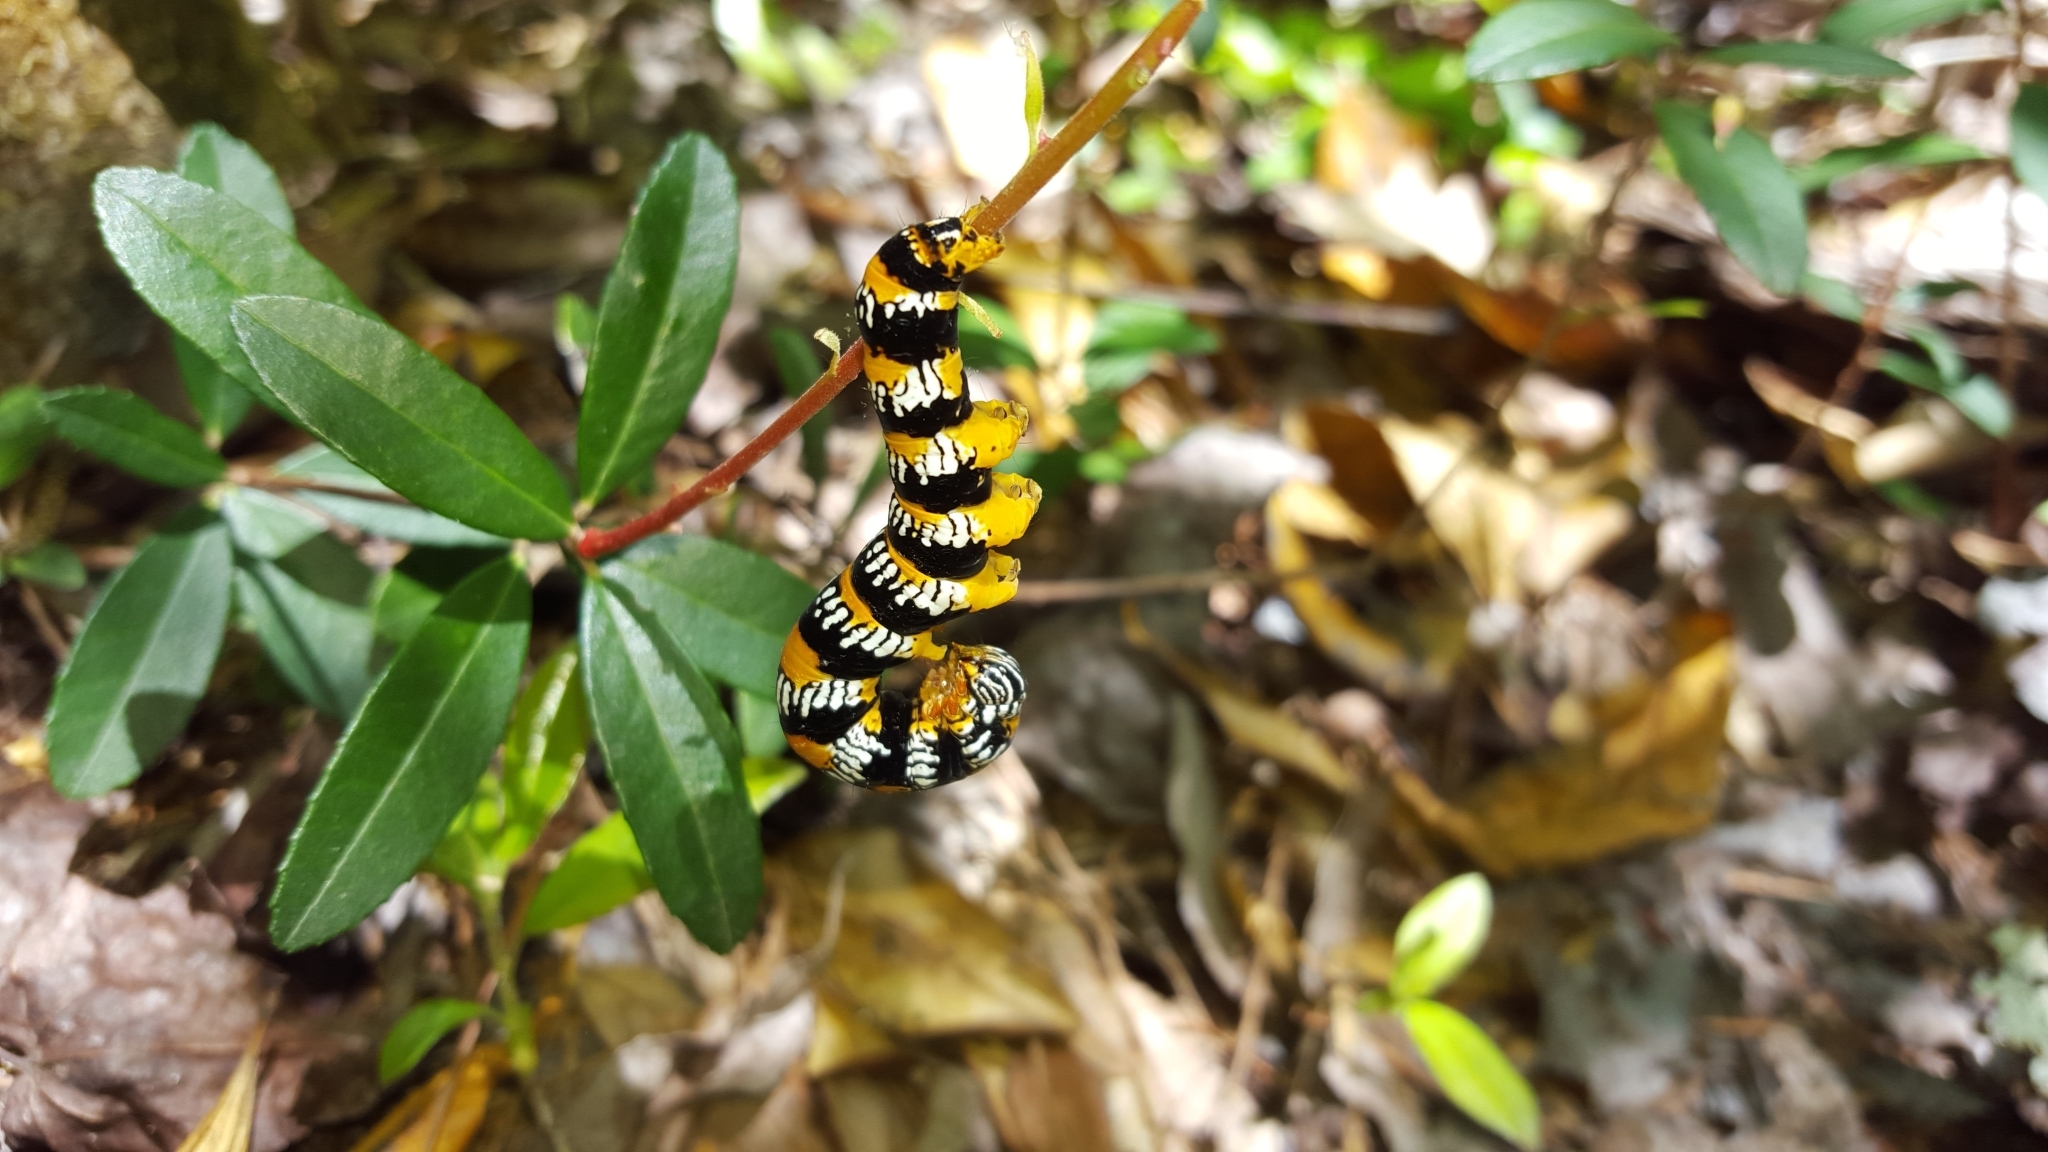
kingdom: Animalia
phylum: Arthropoda
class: Insecta
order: Lepidoptera
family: Erebidae
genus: Zale
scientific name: Zale perculta
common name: Okefenokee zale moth
